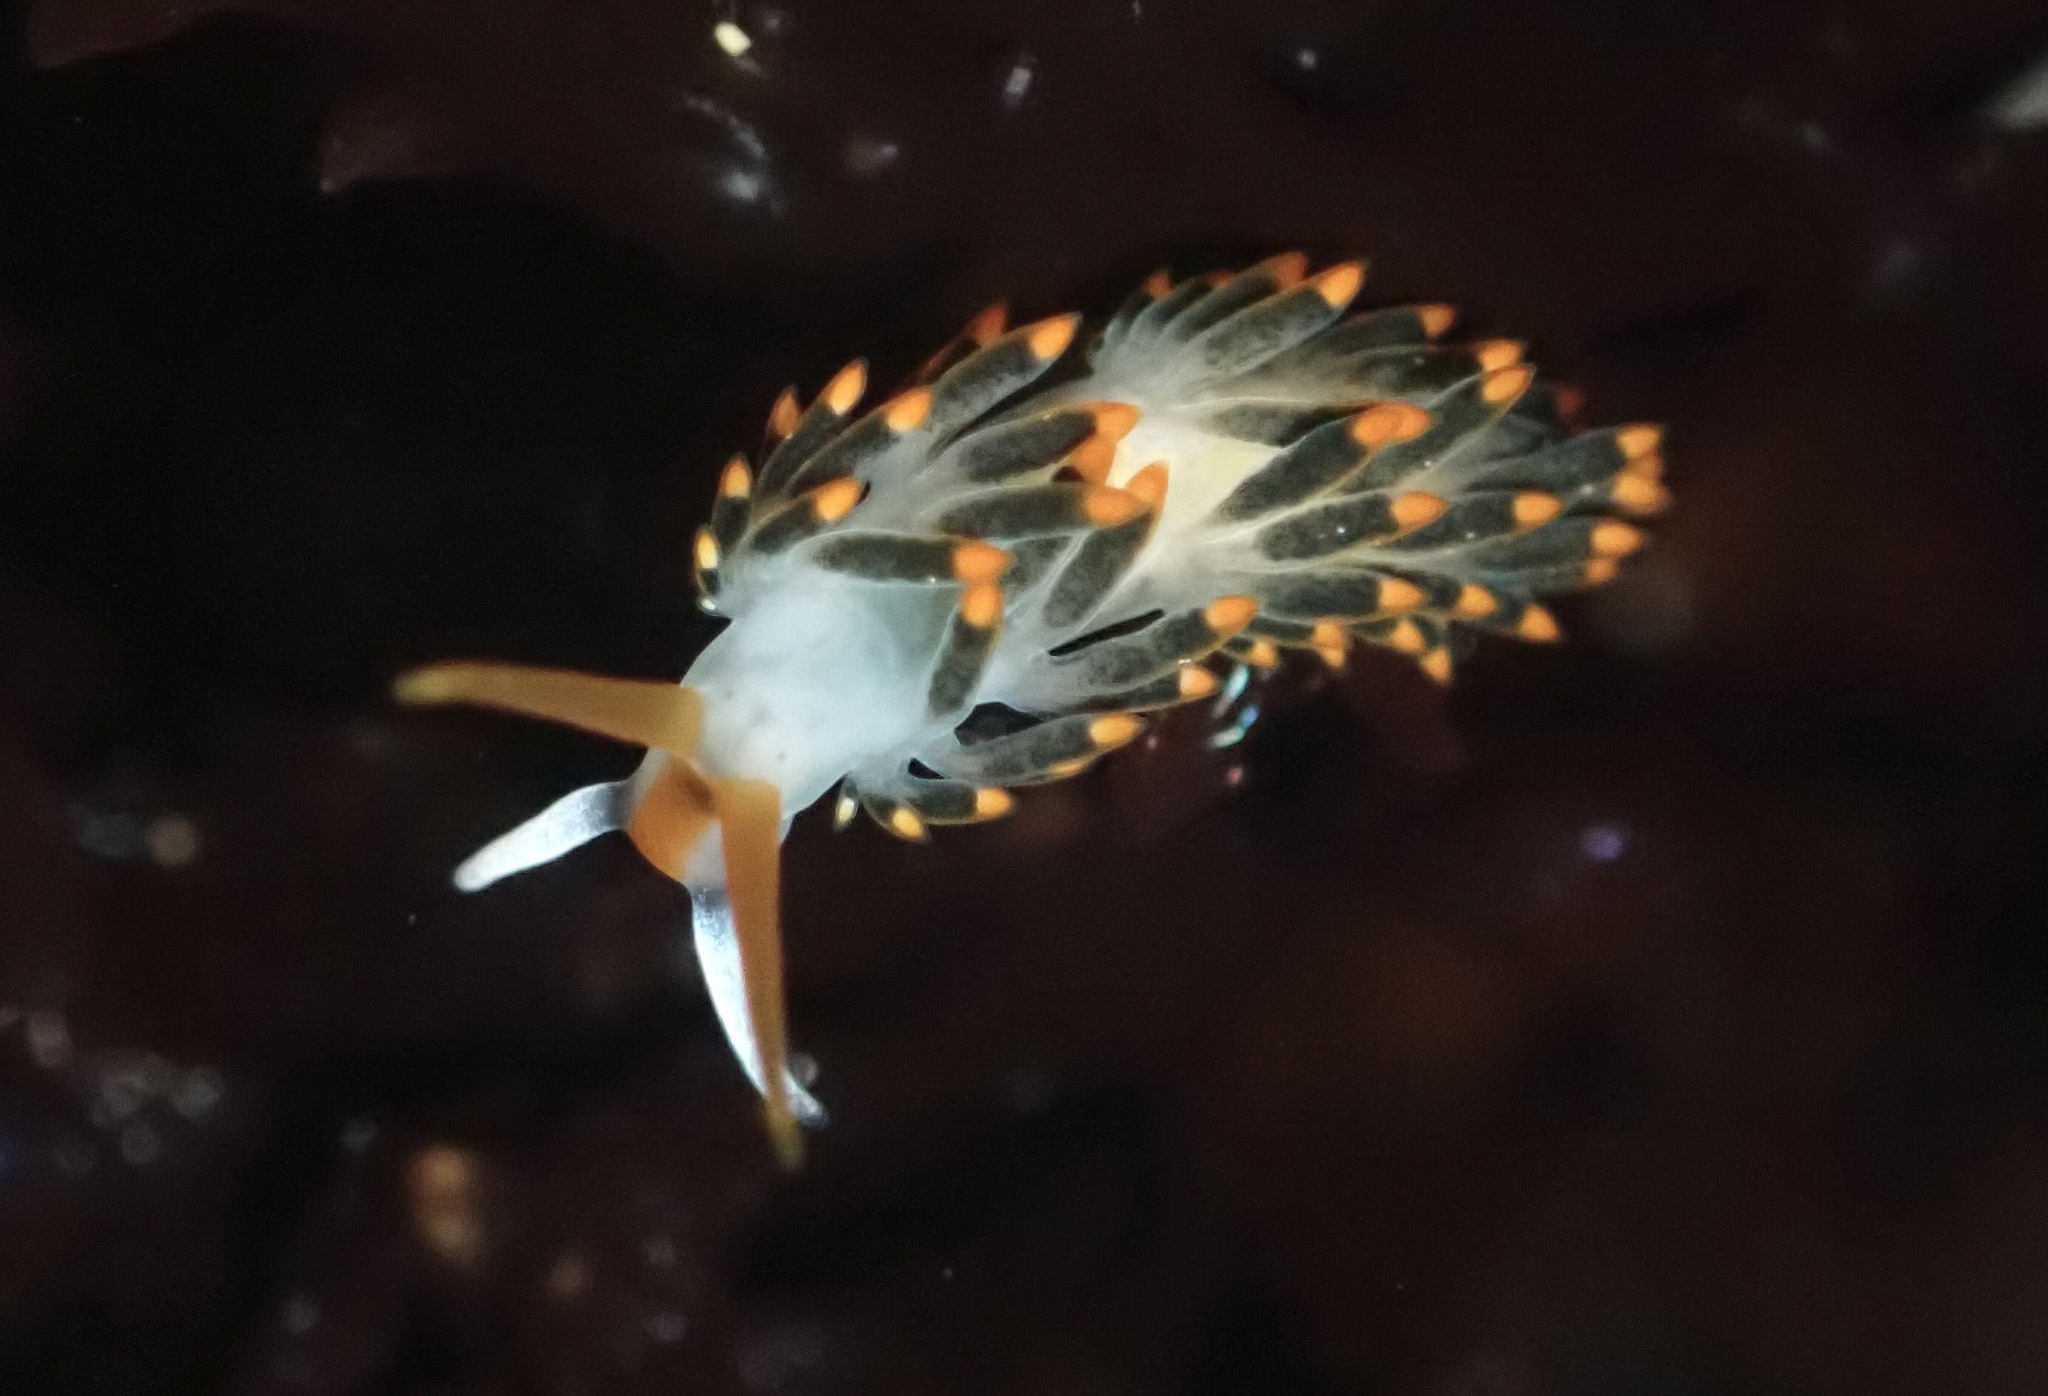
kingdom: Animalia
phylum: Mollusca
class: Gastropoda
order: Nudibranchia
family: Trinchesiidae
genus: Diaphoreolis
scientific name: Diaphoreolis lagunae
